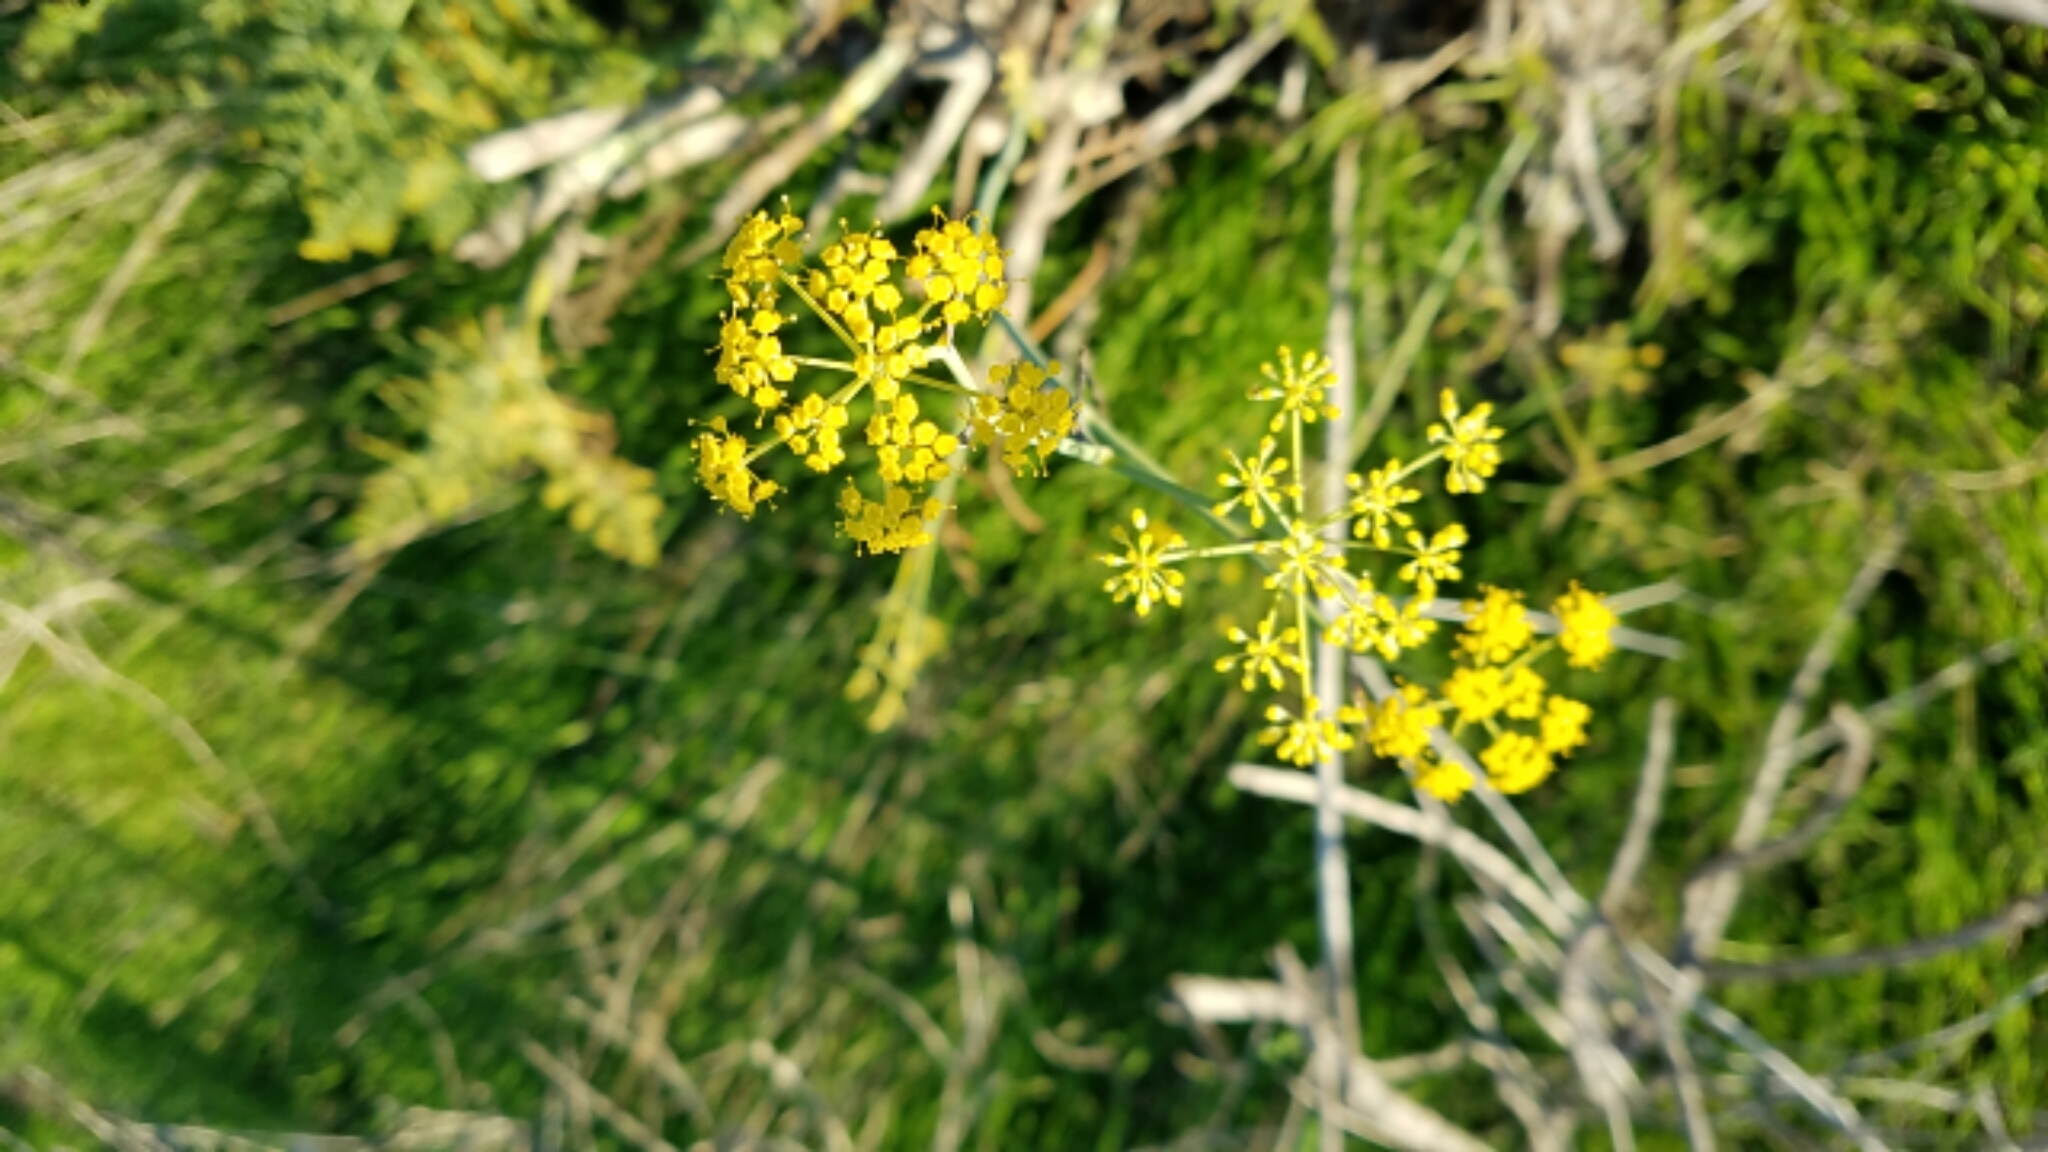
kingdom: Plantae
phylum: Tracheophyta
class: Magnoliopsida
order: Apiales
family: Apiaceae
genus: Foeniculum
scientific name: Foeniculum vulgare
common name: Fennel
